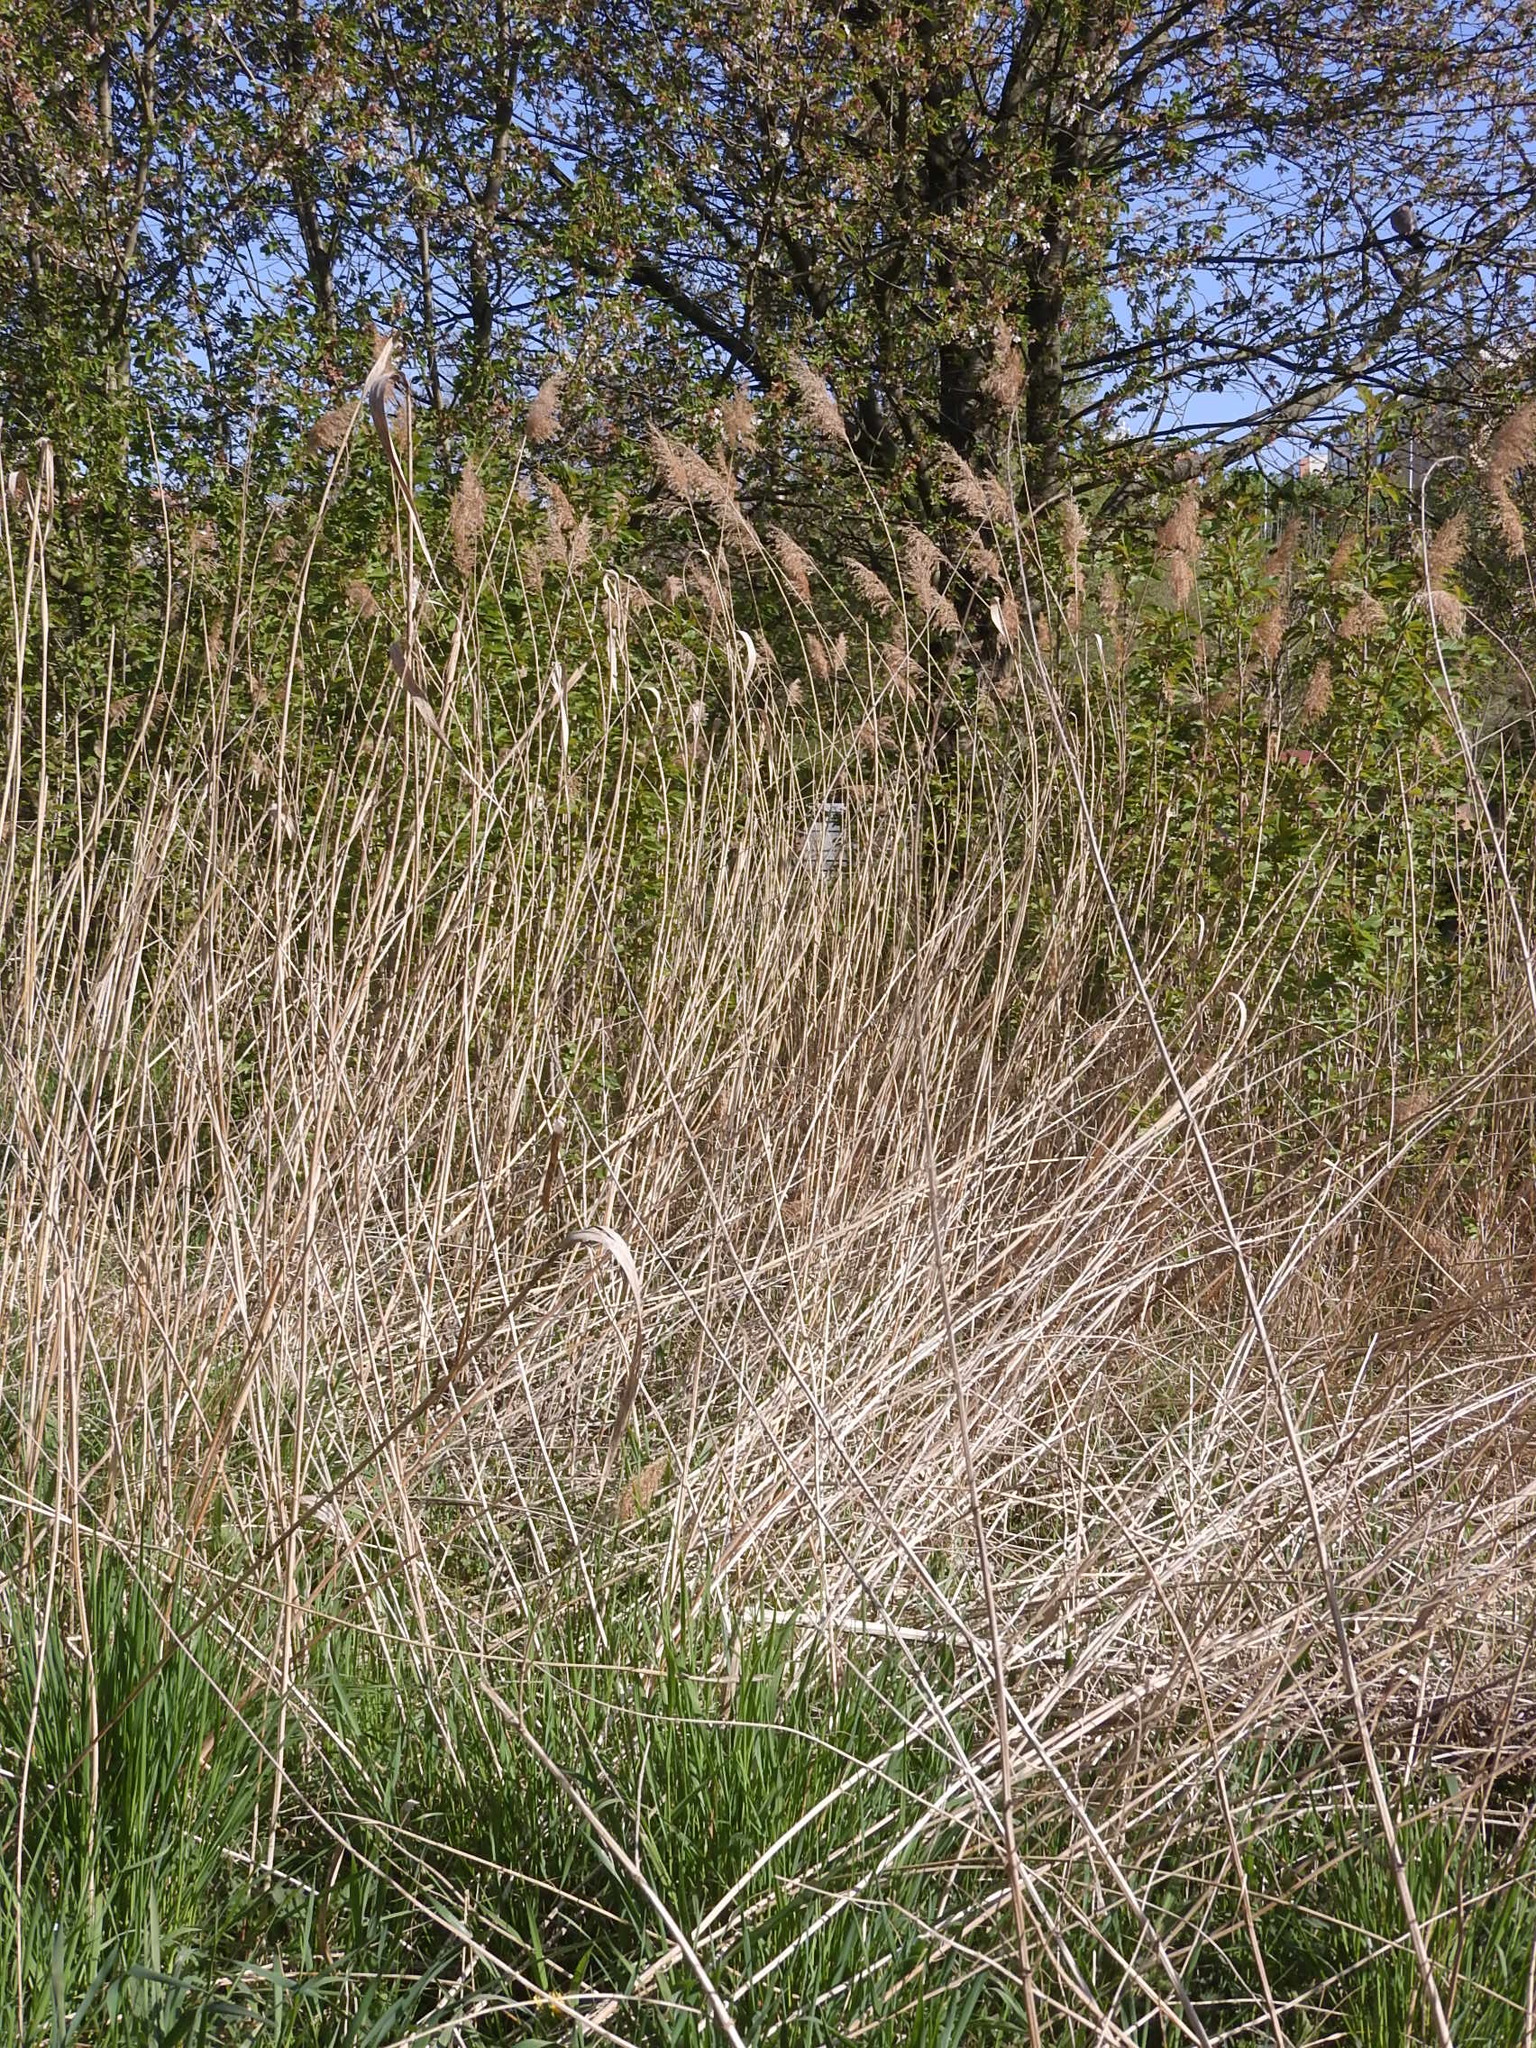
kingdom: Plantae
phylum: Tracheophyta
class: Liliopsida
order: Poales
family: Poaceae
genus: Phragmites
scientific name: Phragmites australis
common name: Common reed
